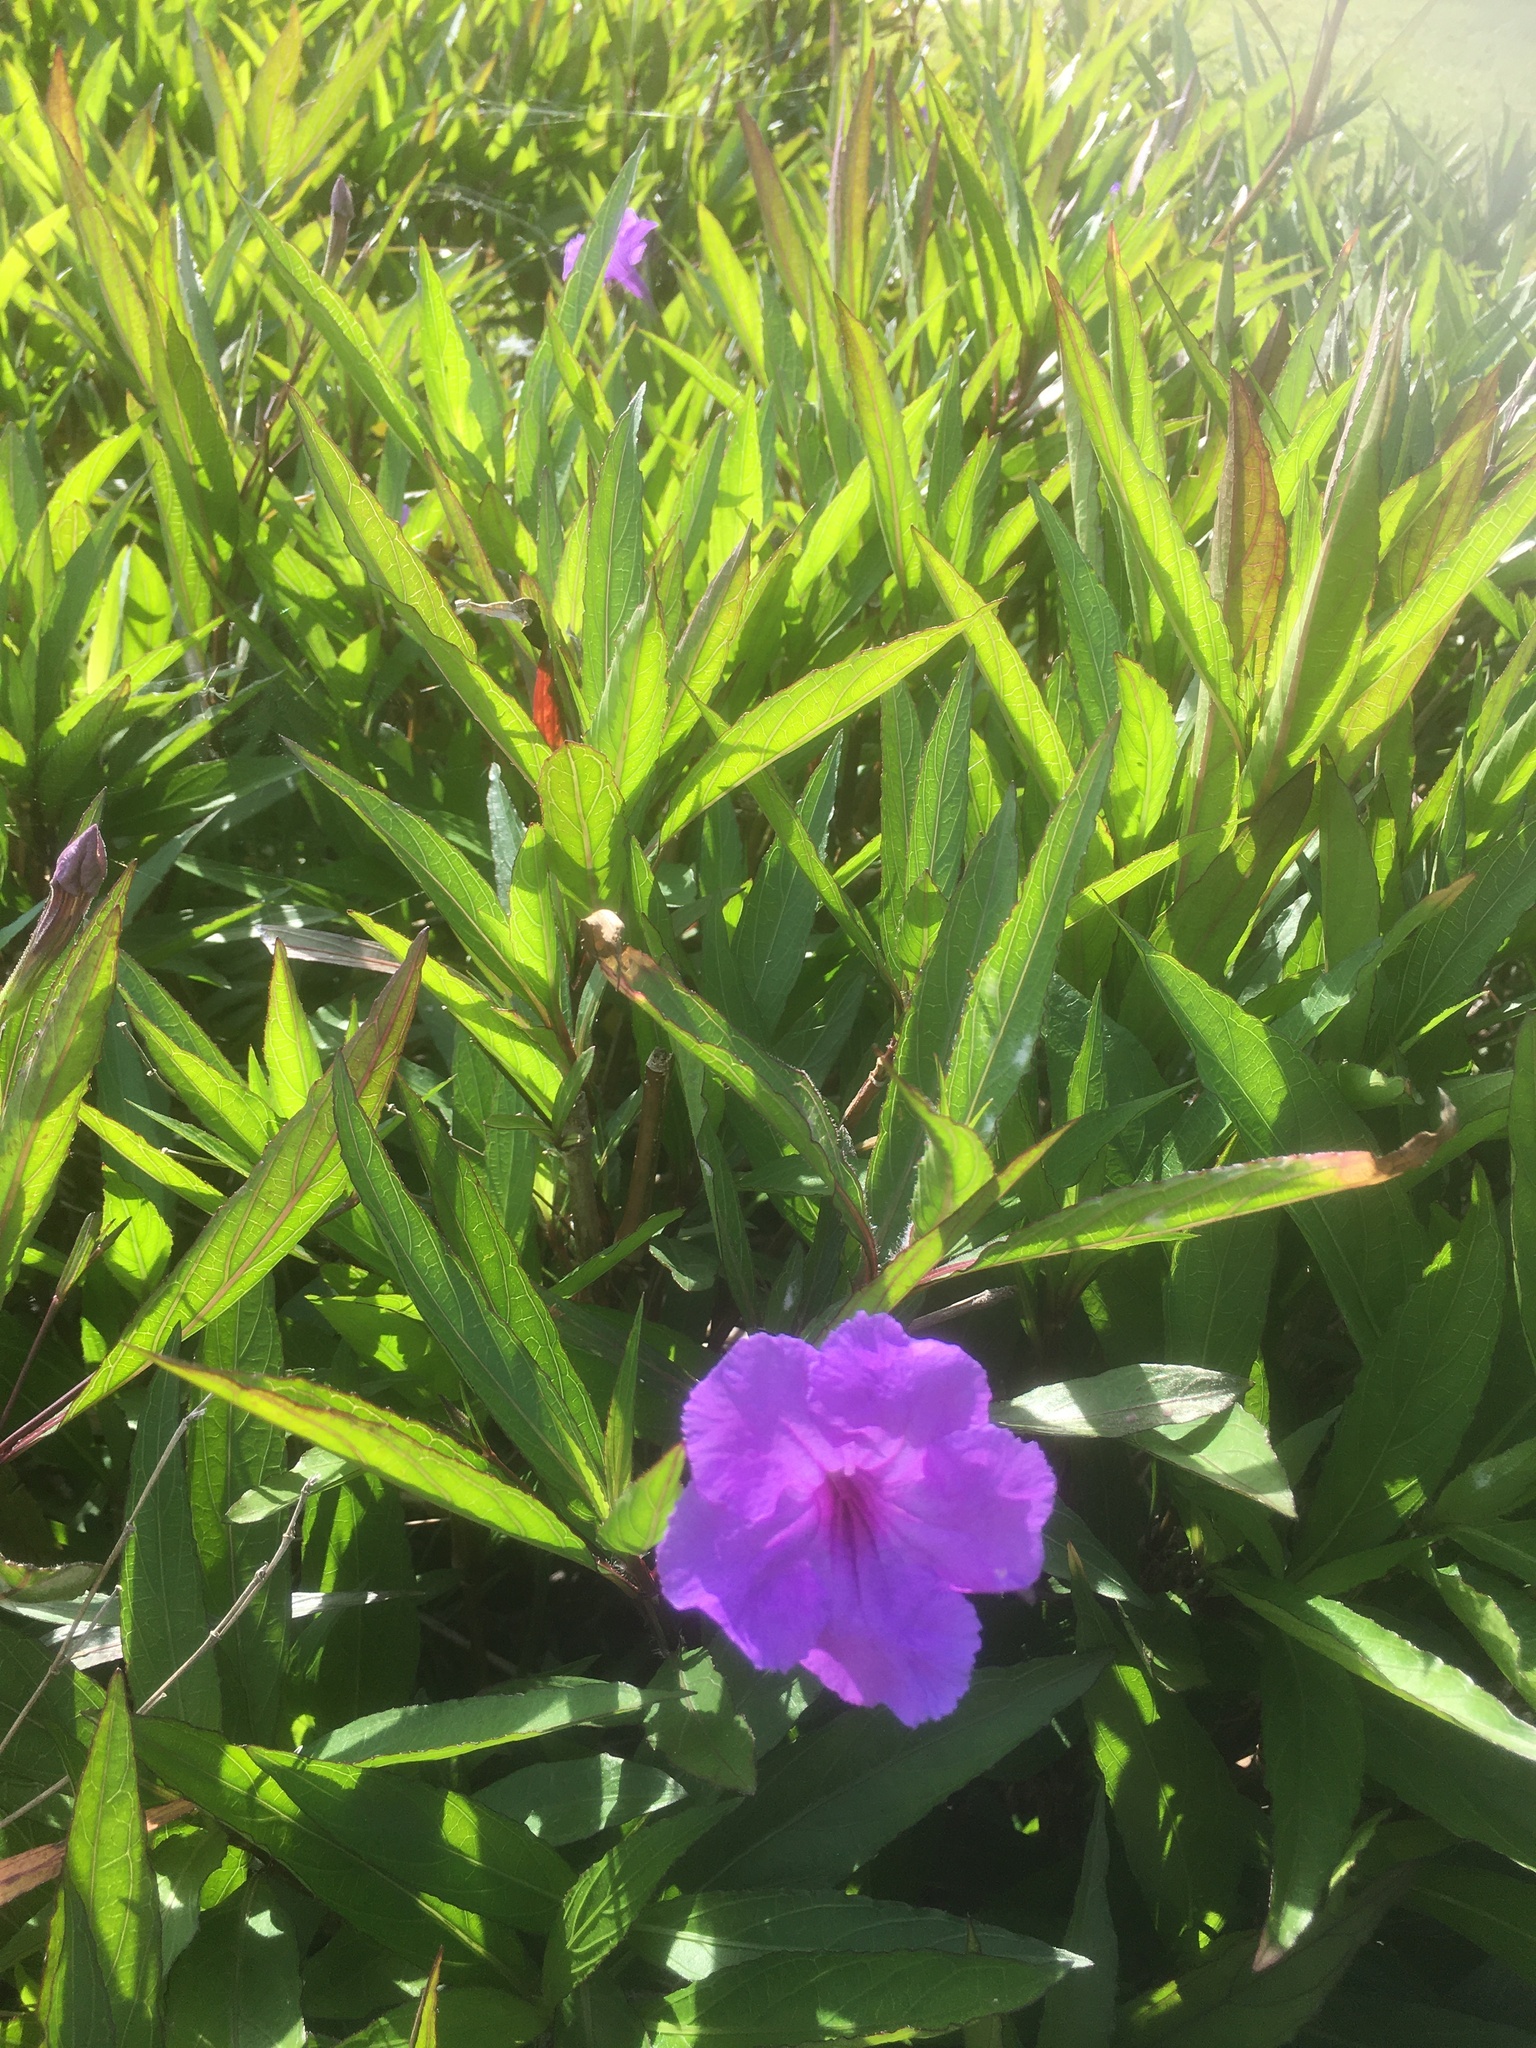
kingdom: Plantae
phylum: Tracheophyta
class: Magnoliopsida
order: Lamiales
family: Acanthaceae
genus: Ruellia
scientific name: Ruellia simplex
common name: Softseed wild petunia
